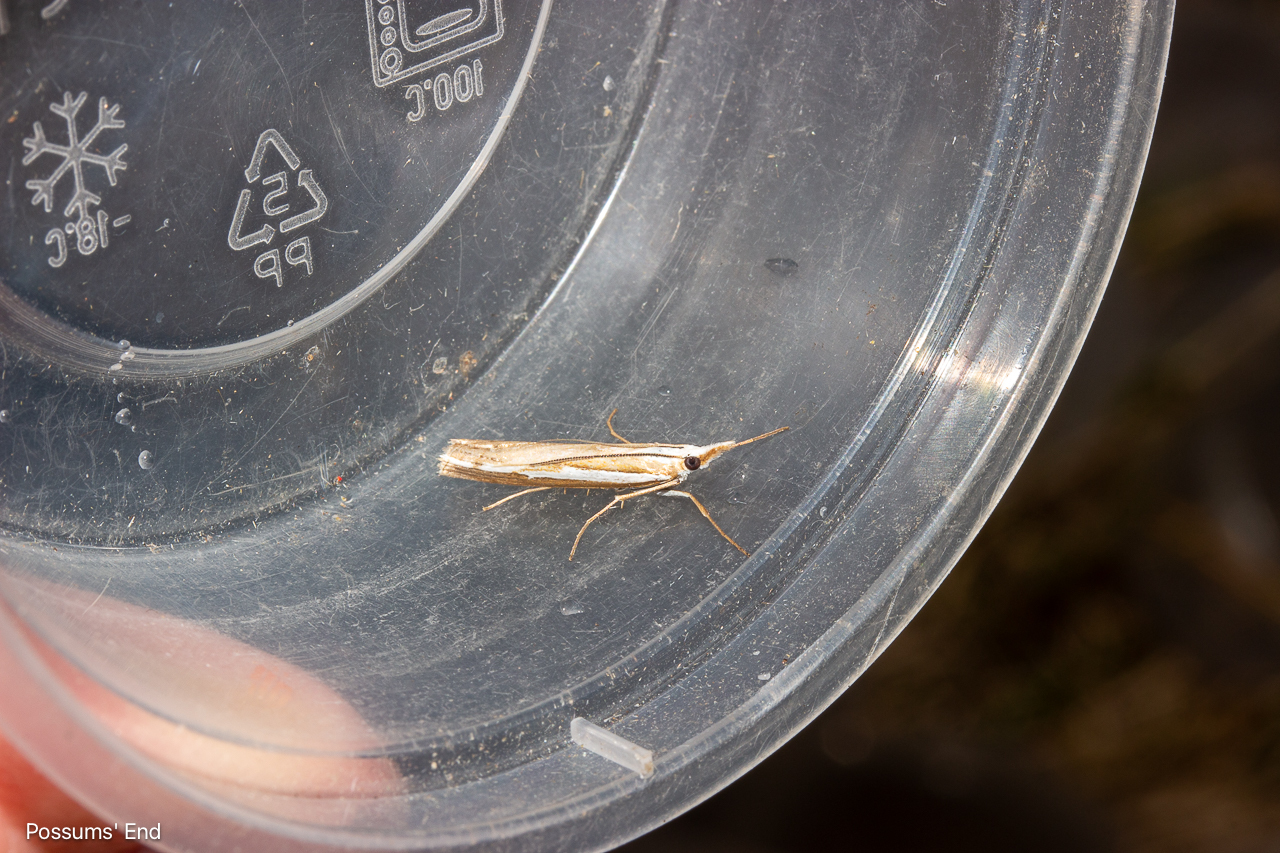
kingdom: Animalia
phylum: Arthropoda
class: Insecta
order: Lepidoptera
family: Crambidae
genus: Orocrambus
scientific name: Orocrambus vittellus
